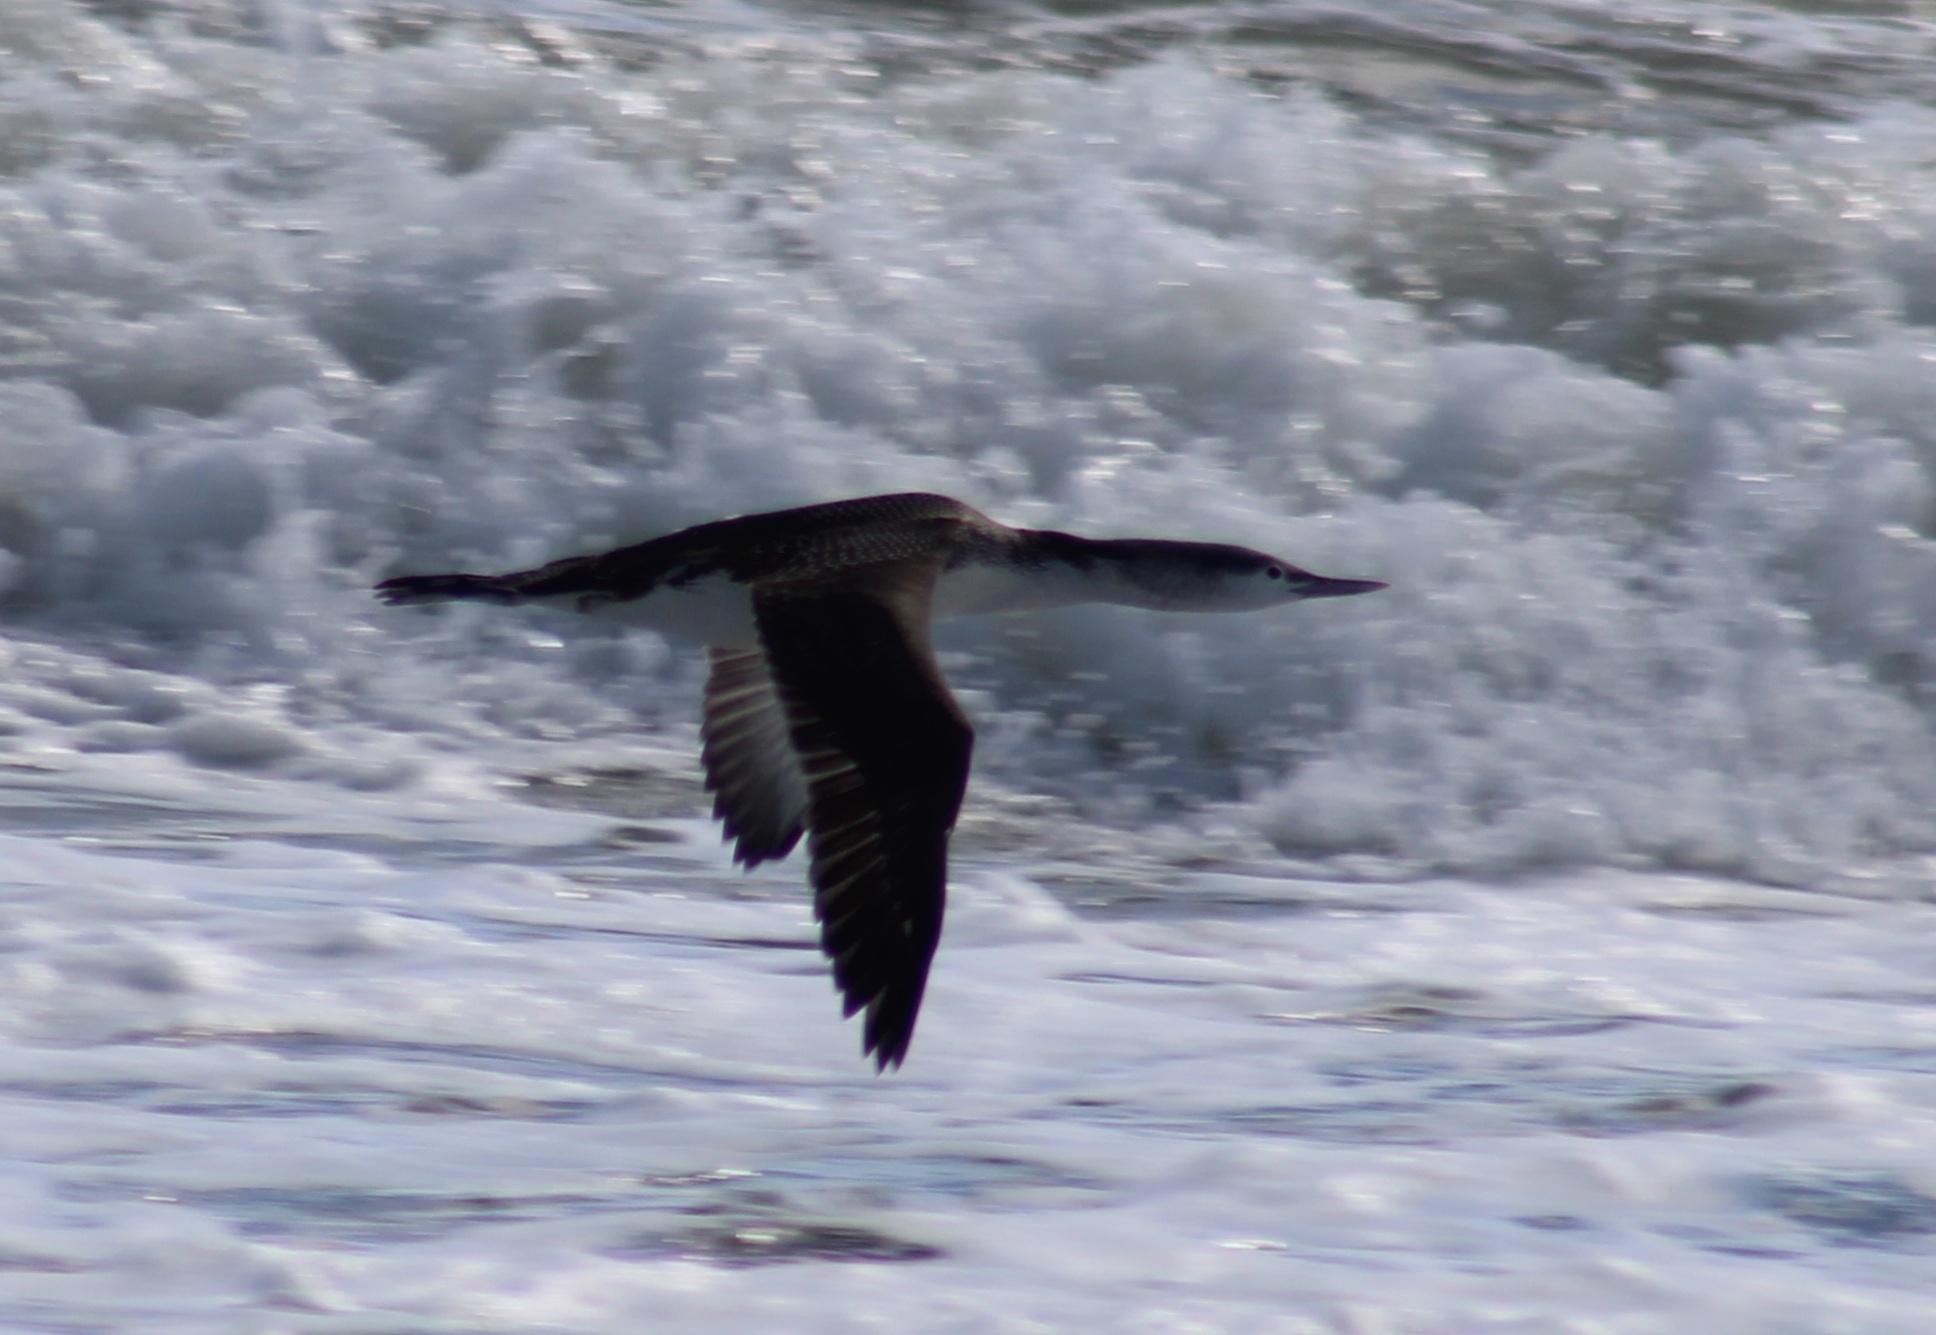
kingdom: Animalia
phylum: Chordata
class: Aves
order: Gaviiformes
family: Gaviidae
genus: Gavia
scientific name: Gavia stellata
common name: Red-throated loon
